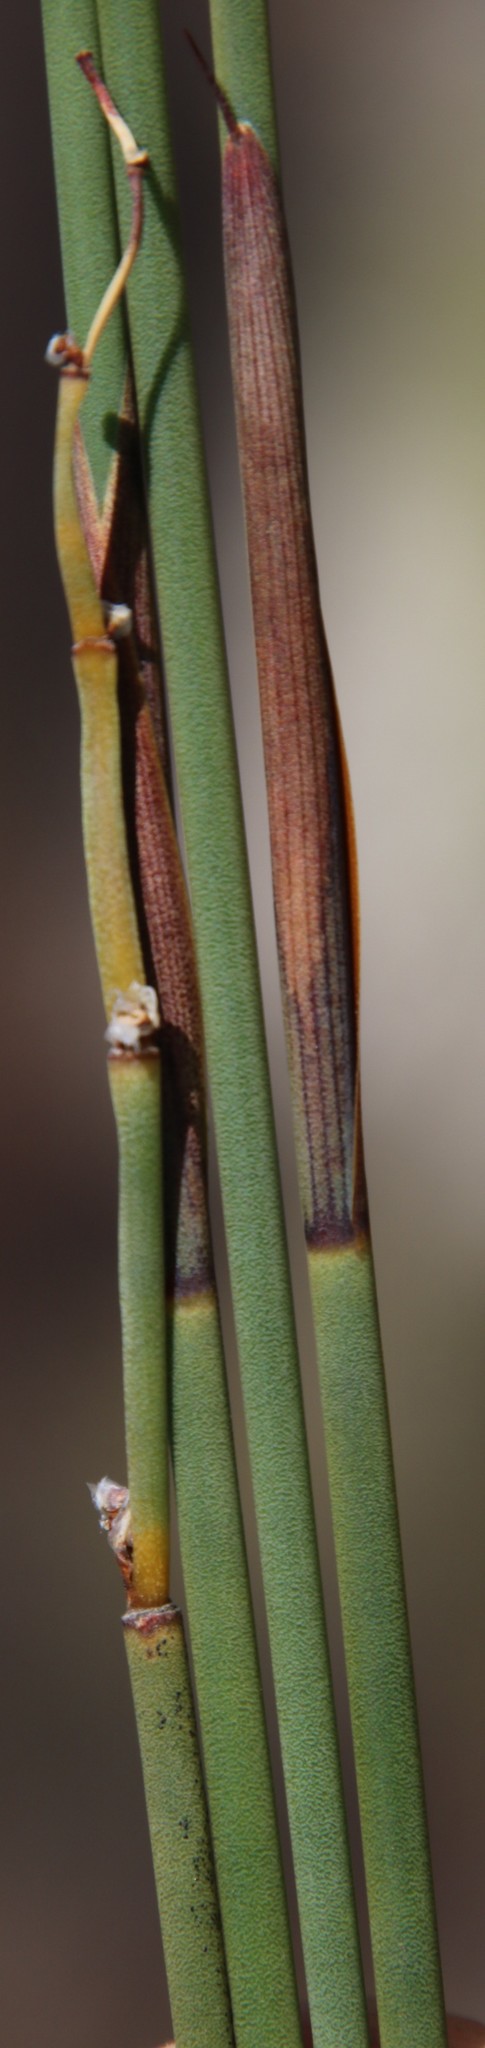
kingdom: Plantae
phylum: Tracheophyta
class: Liliopsida
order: Poales
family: Restionaceae
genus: Cannomois
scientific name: Cannomois parviflora
